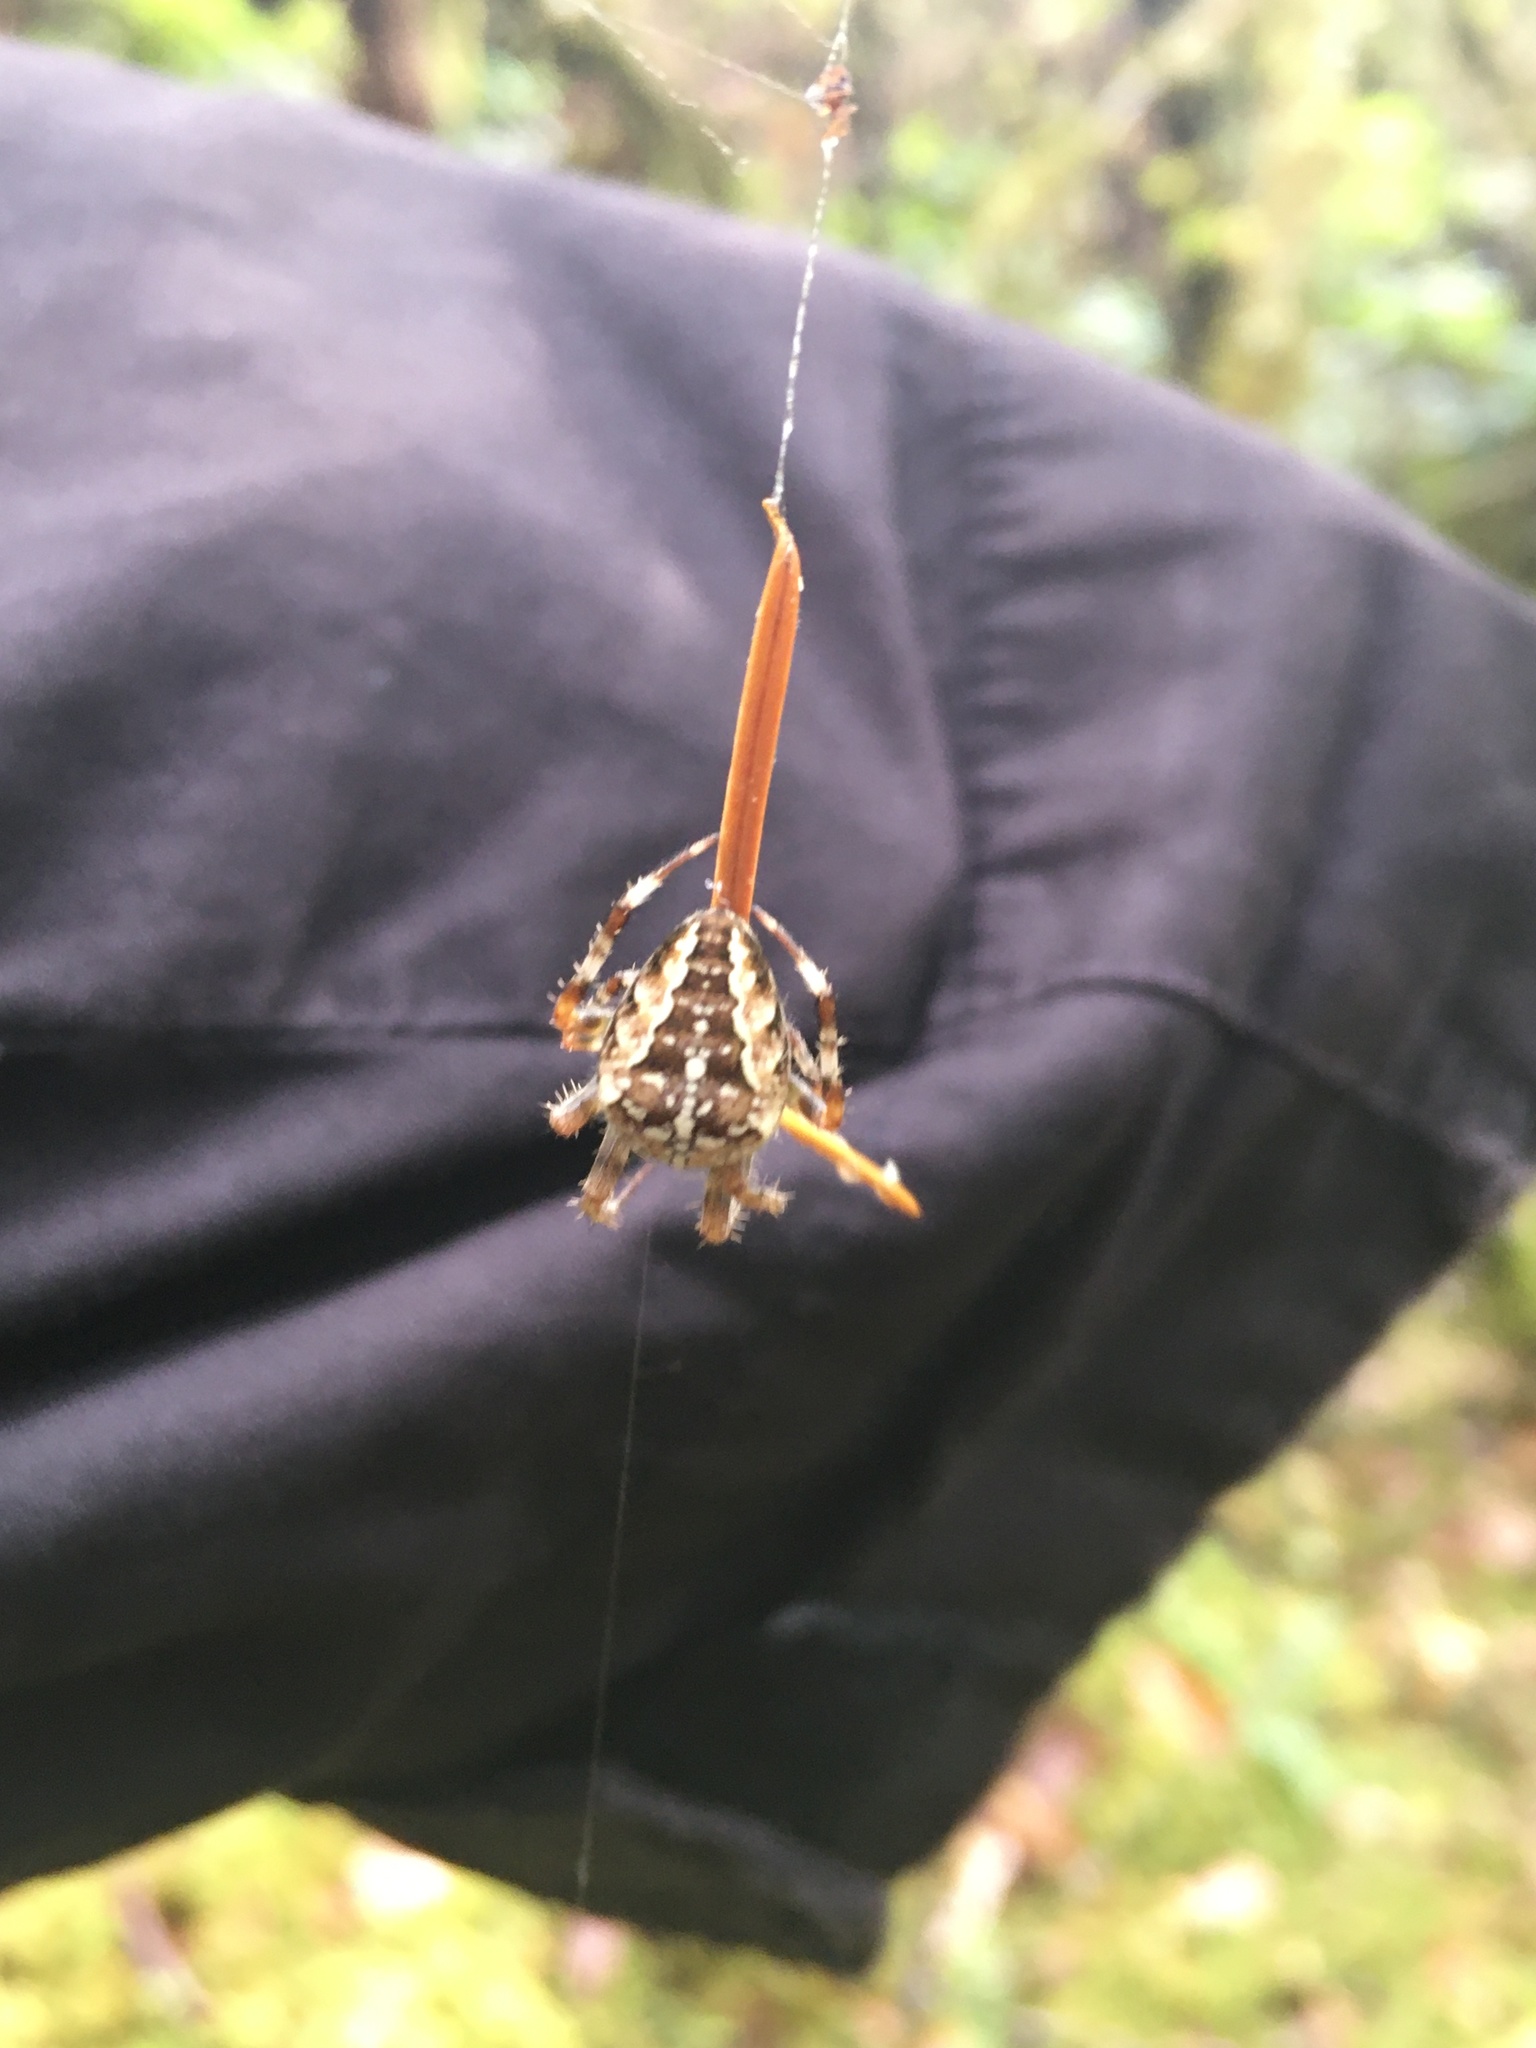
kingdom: Animalia
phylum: Arthropoda
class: Arachnida
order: Araneae
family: Araneidae
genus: Araneus
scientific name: Araneus diadematus
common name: Cross orbweaver
